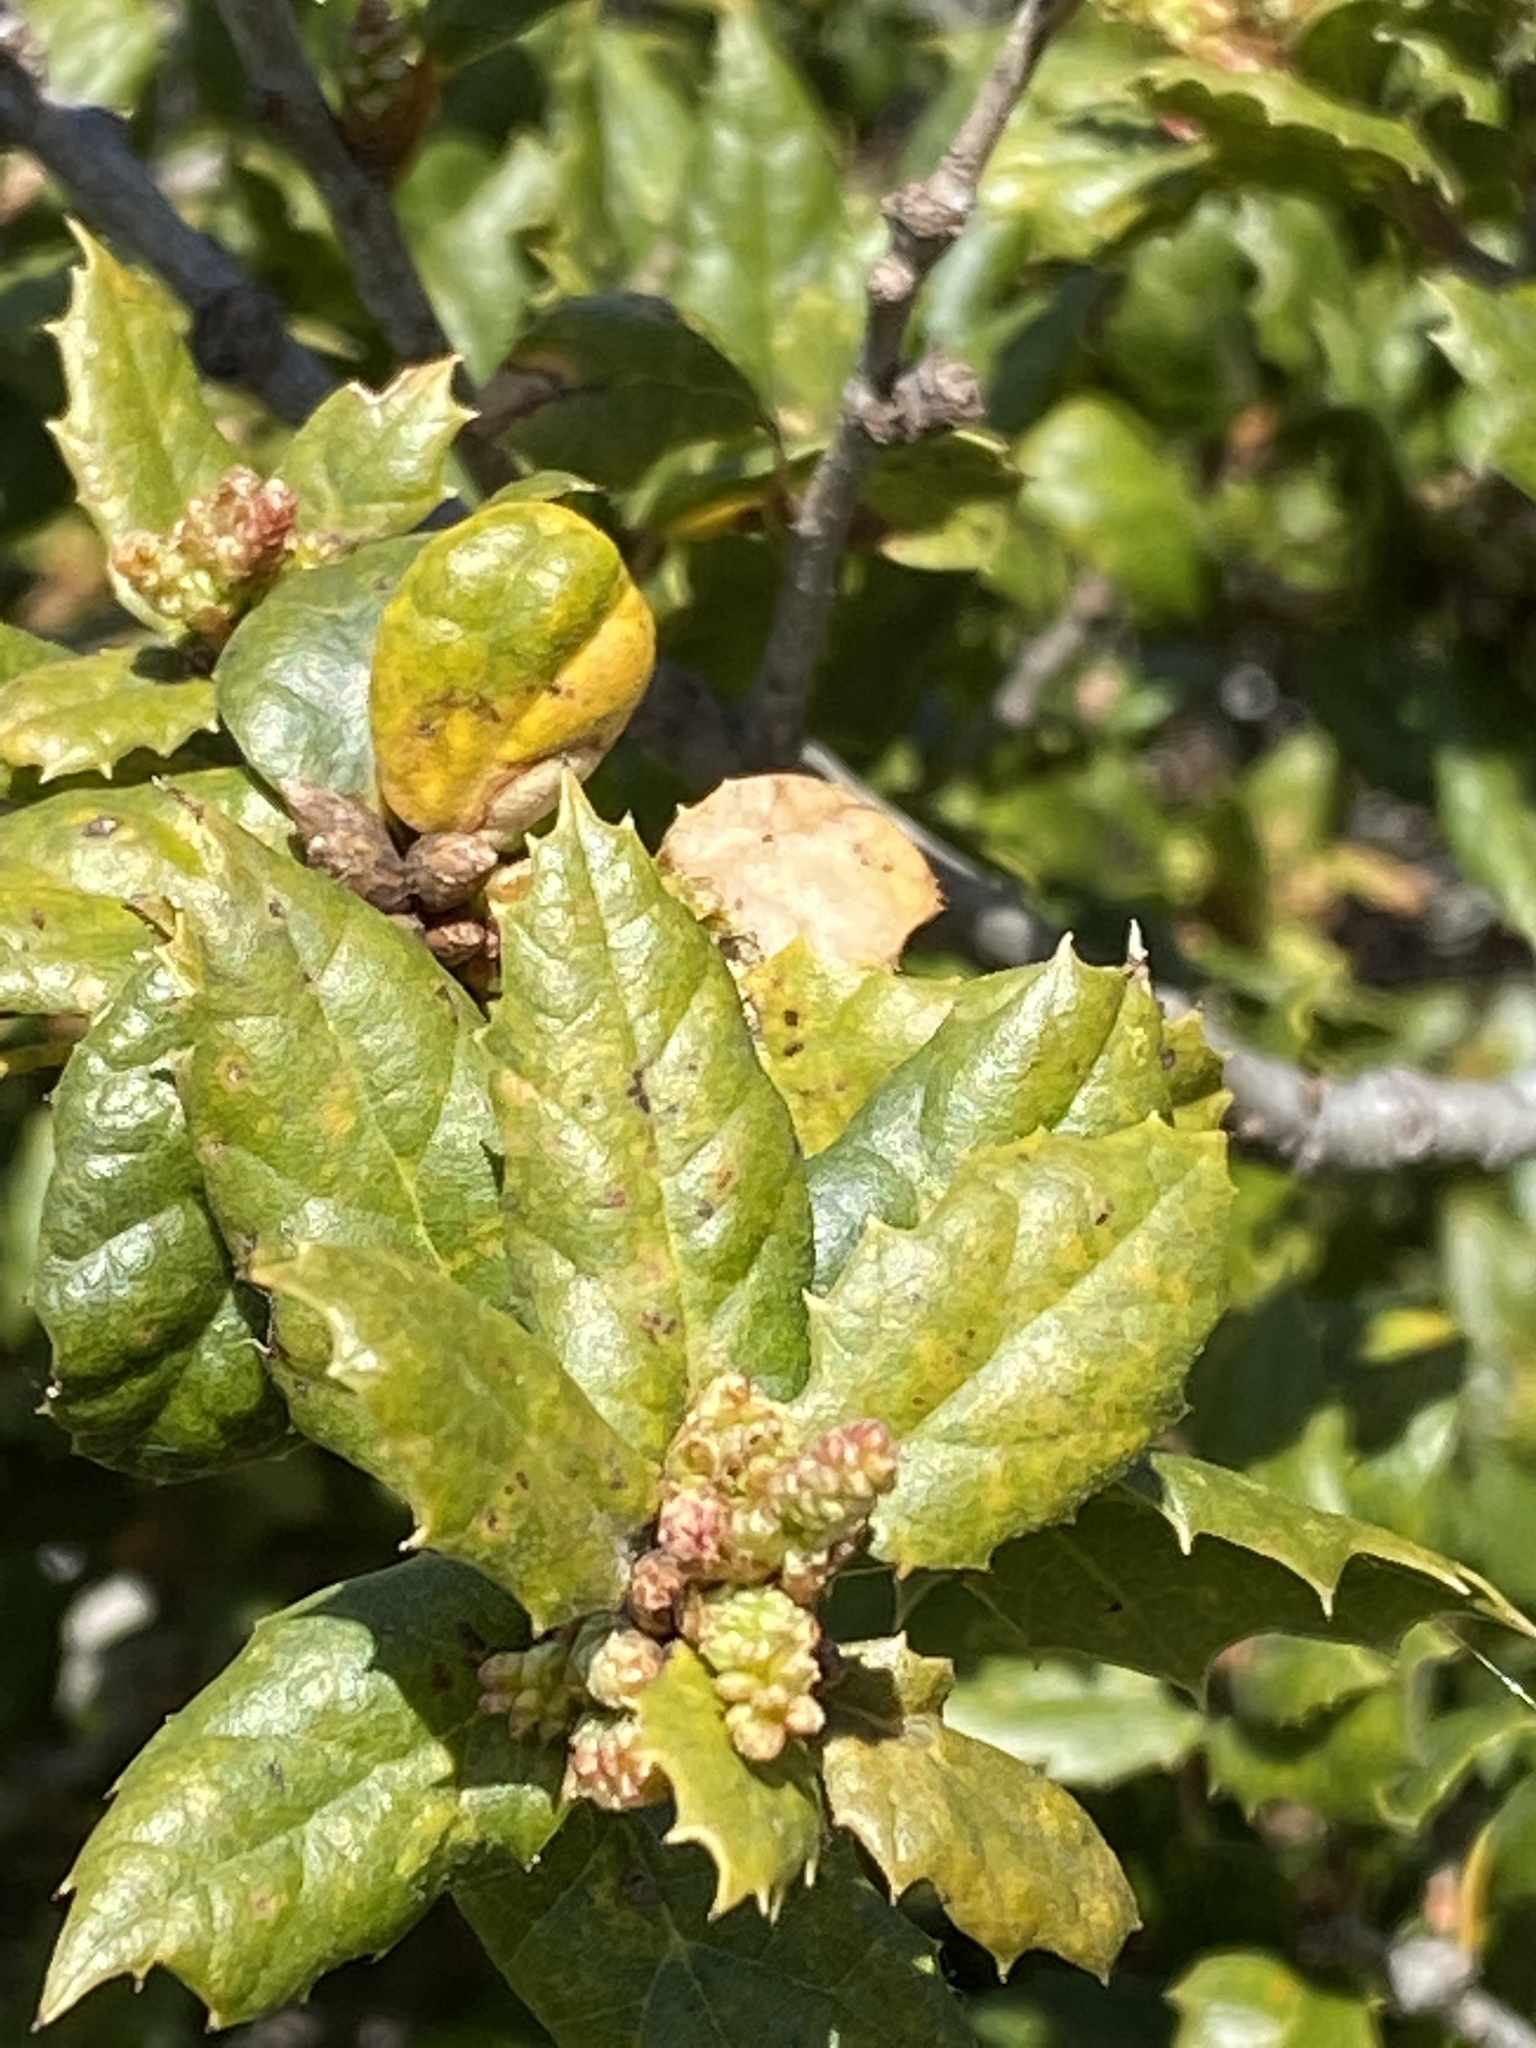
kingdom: Plantae
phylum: Tracheophyta
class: Magnoliopsida
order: Fagales
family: Fagaceae
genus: Quercus
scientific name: Quercus agrifolia
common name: California live oak
